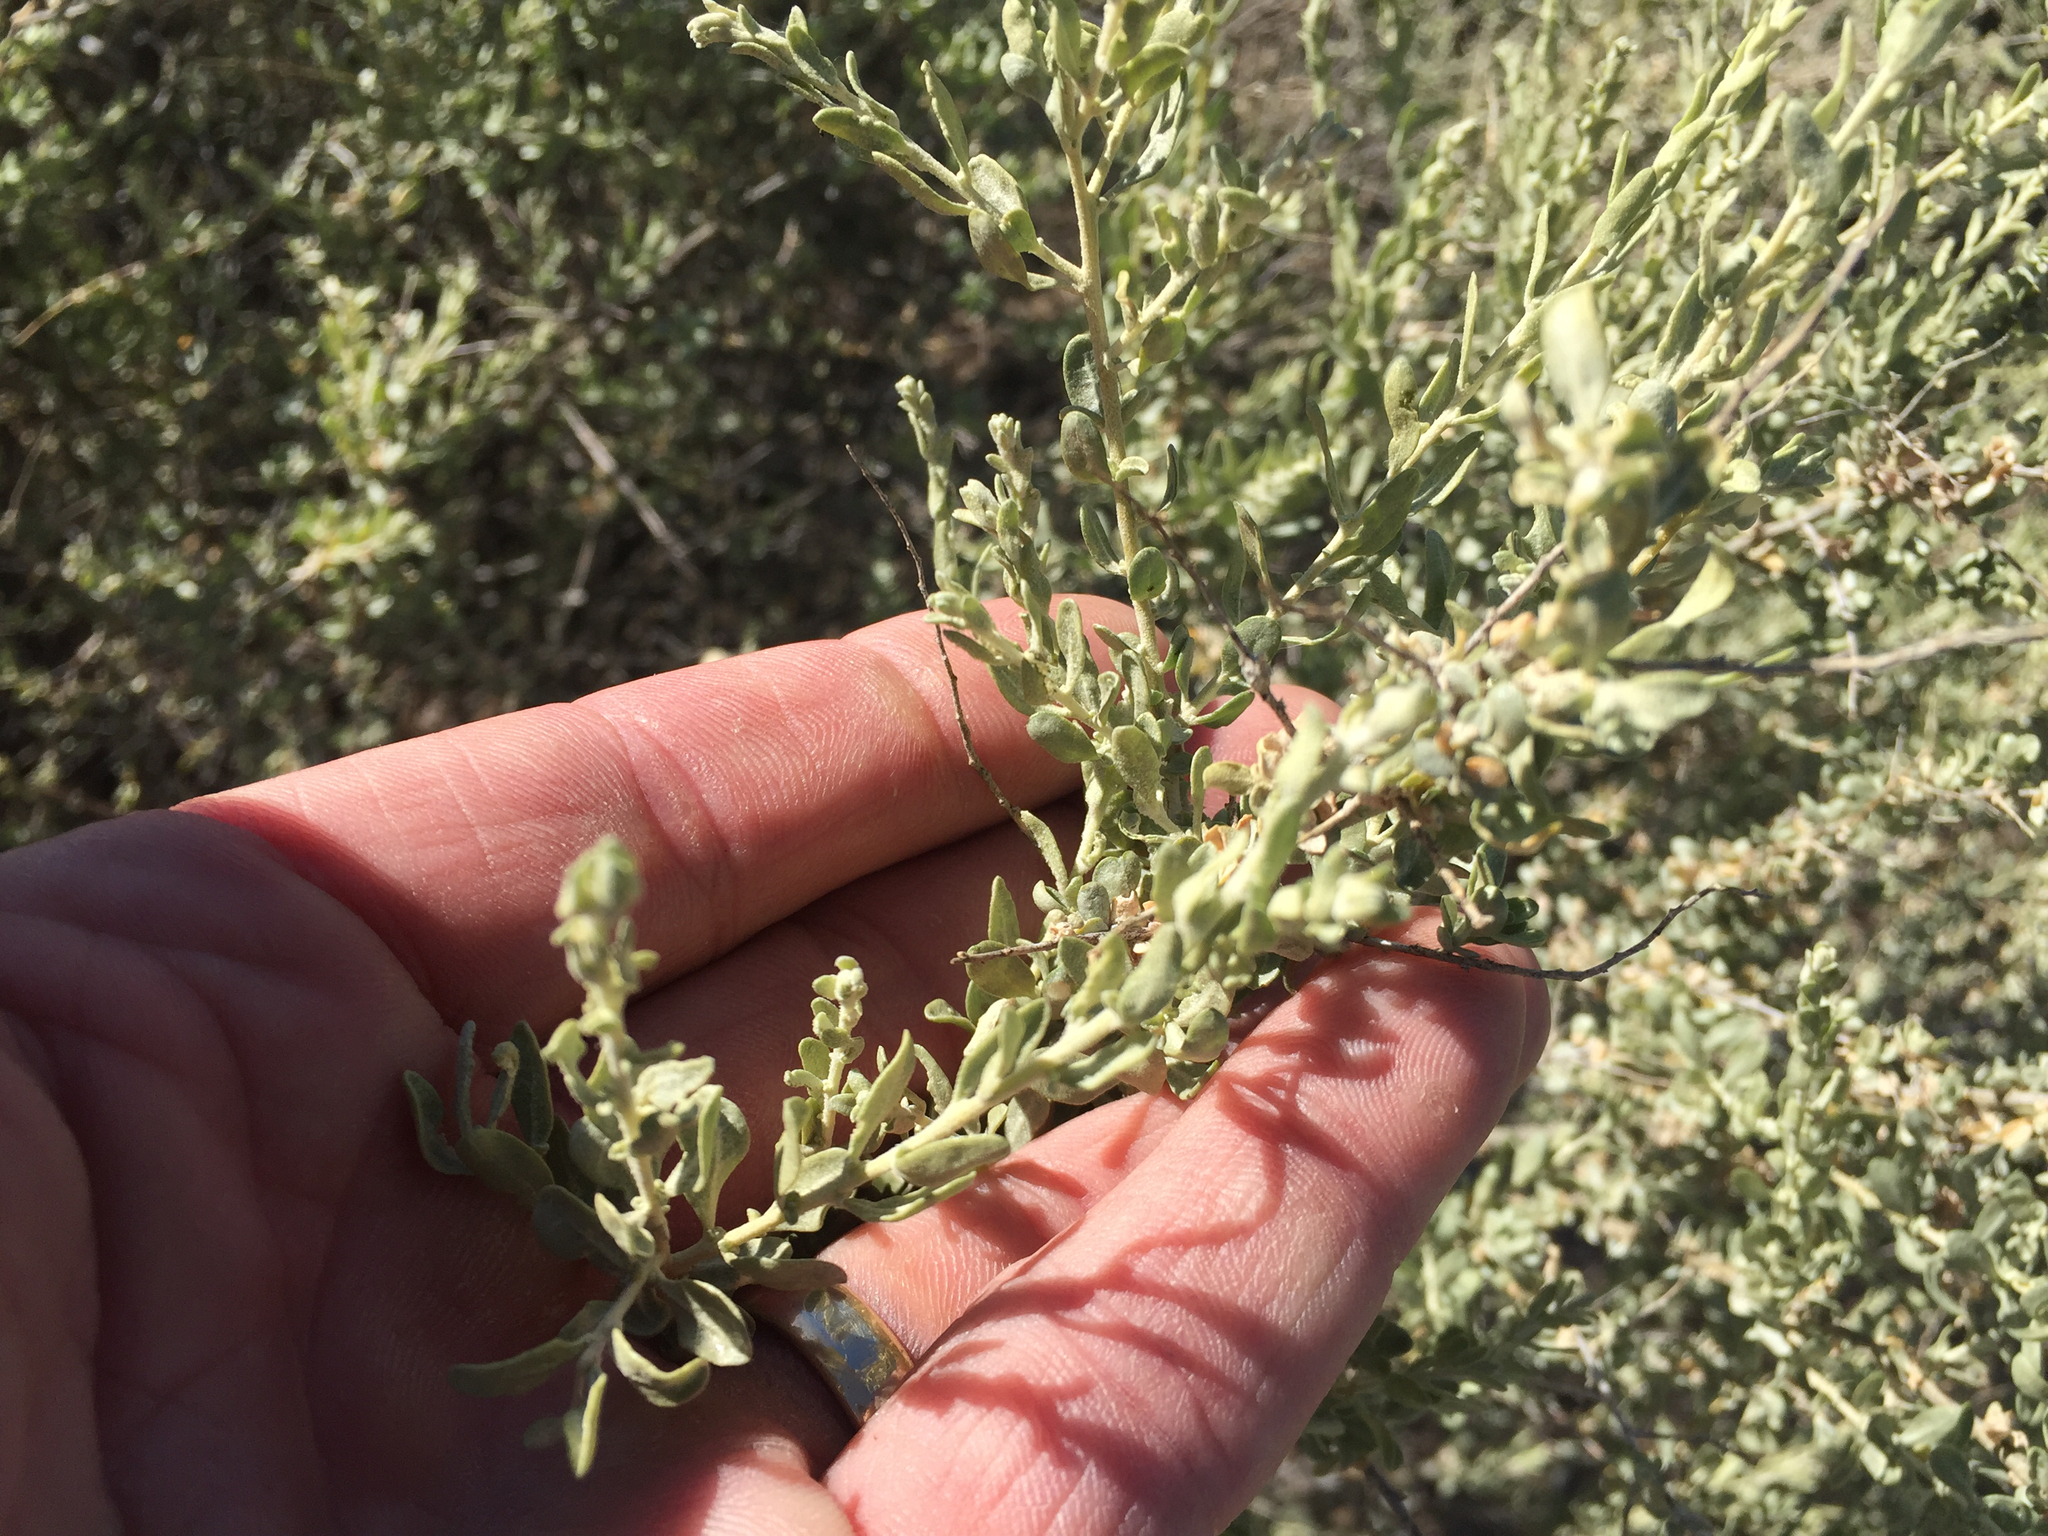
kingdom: Plantae
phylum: Tracheophyta
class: Magnoliopsida
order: Caryophyllales
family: Amaranthaceae
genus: Atriplex
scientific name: Atriplex canescens
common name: Four-wing saltbush
